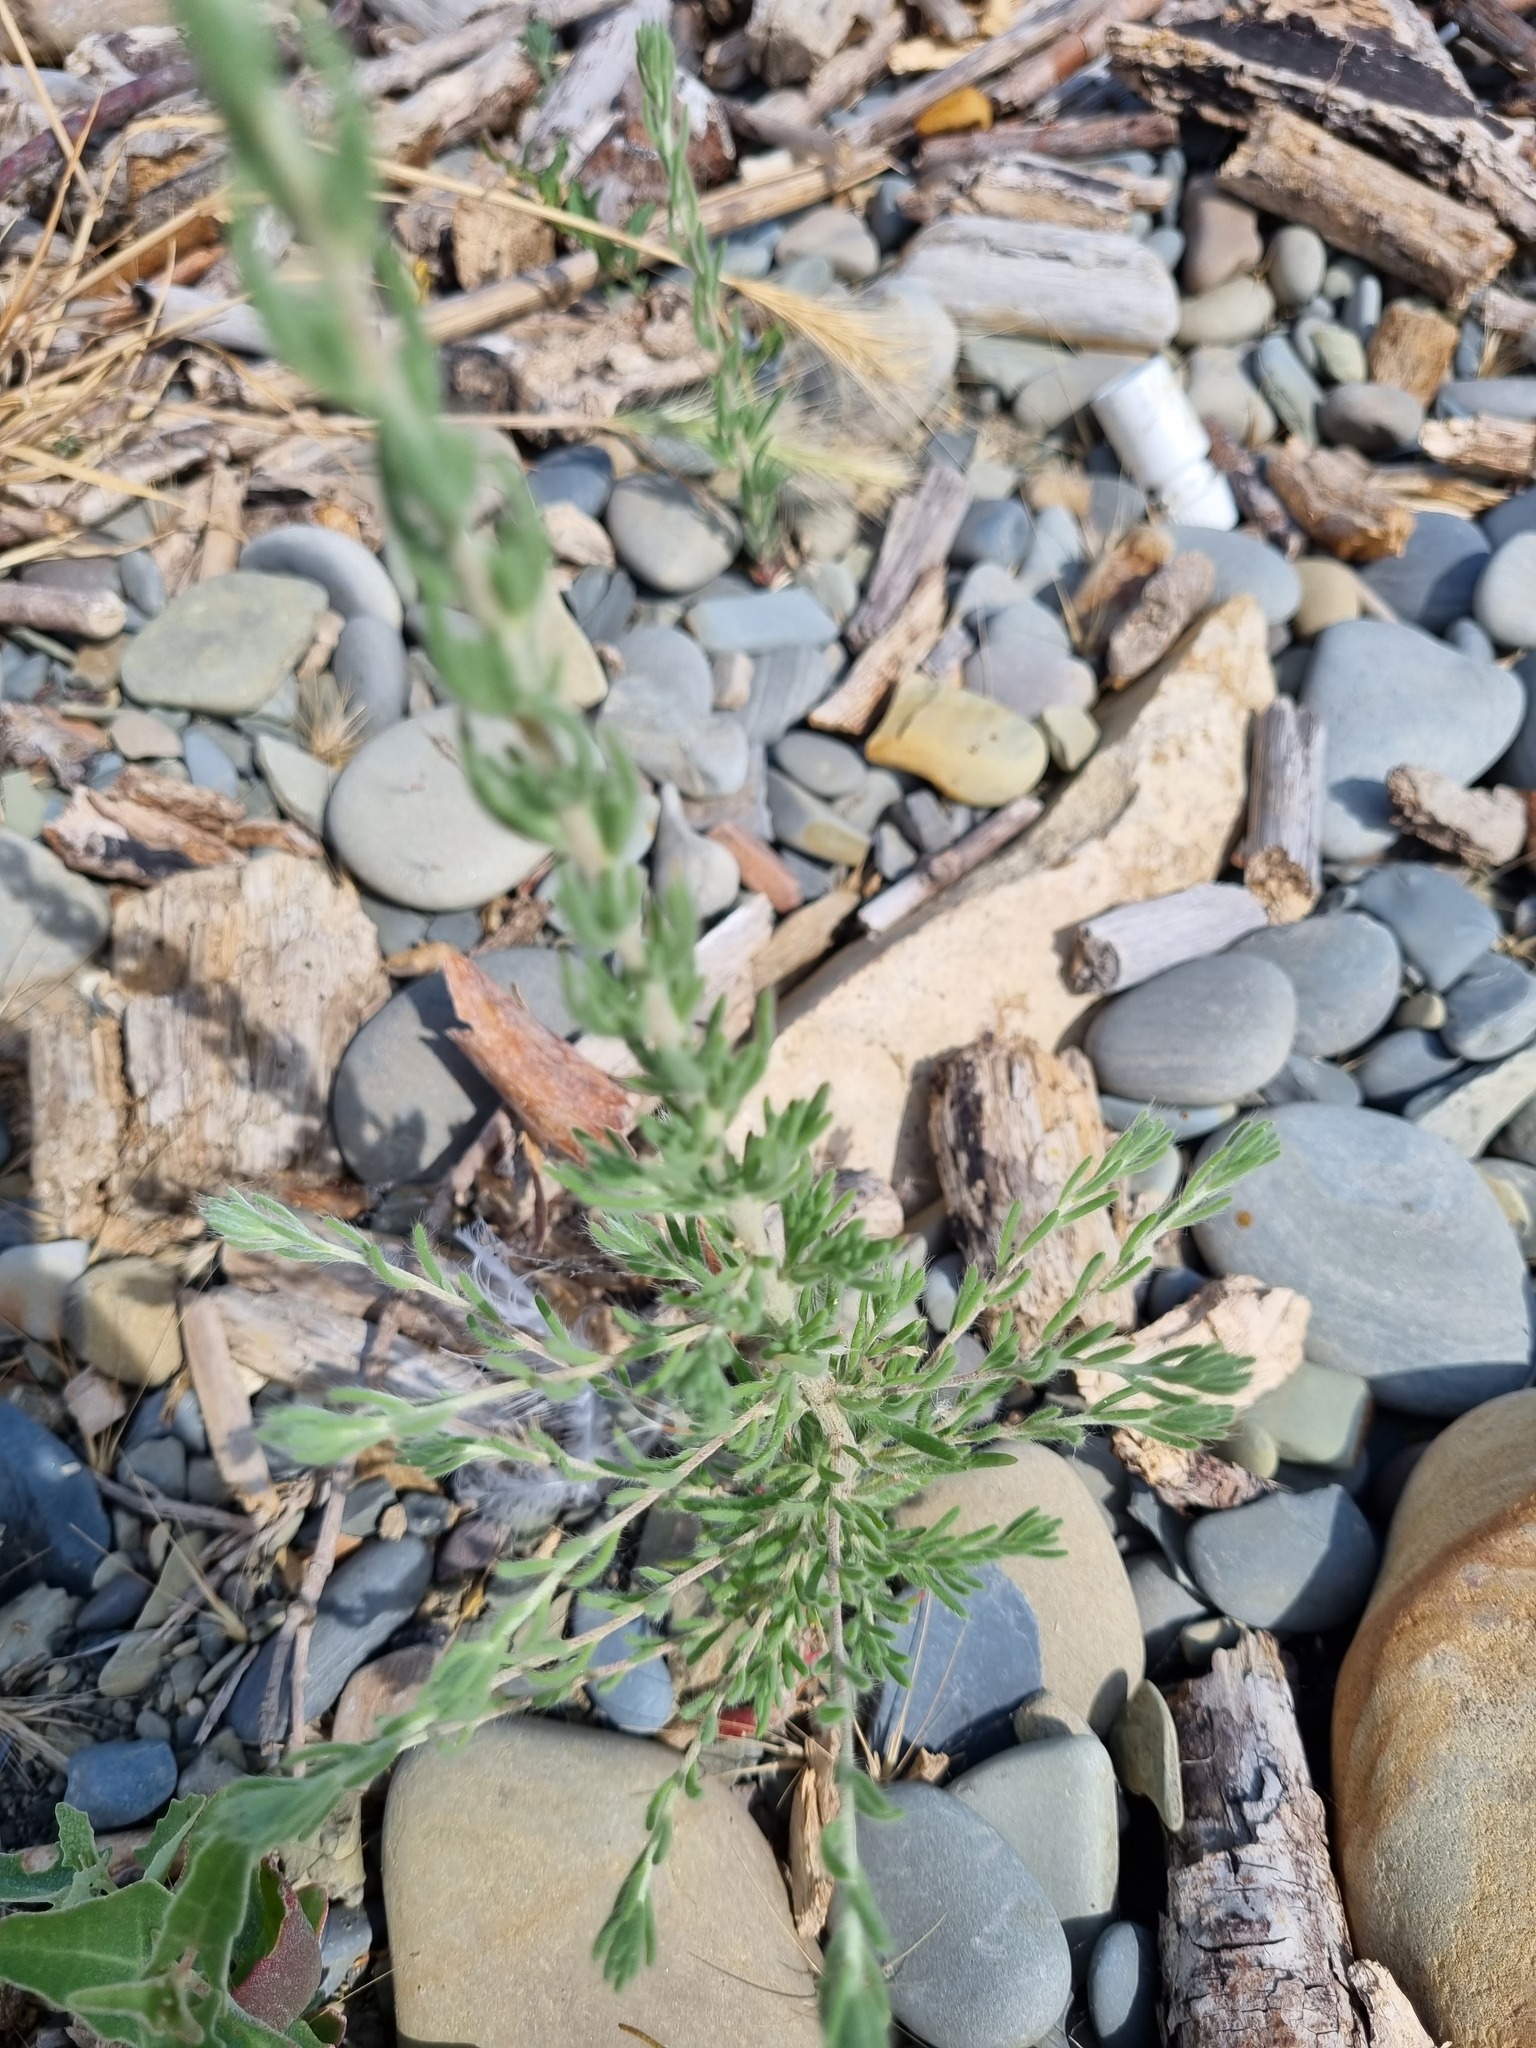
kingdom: Plantae
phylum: Tracheophyta
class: Magnoliopsida
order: Caryophyllales
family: Amaranthaceae
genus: Sedobassia
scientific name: Sedobassia sedoides
